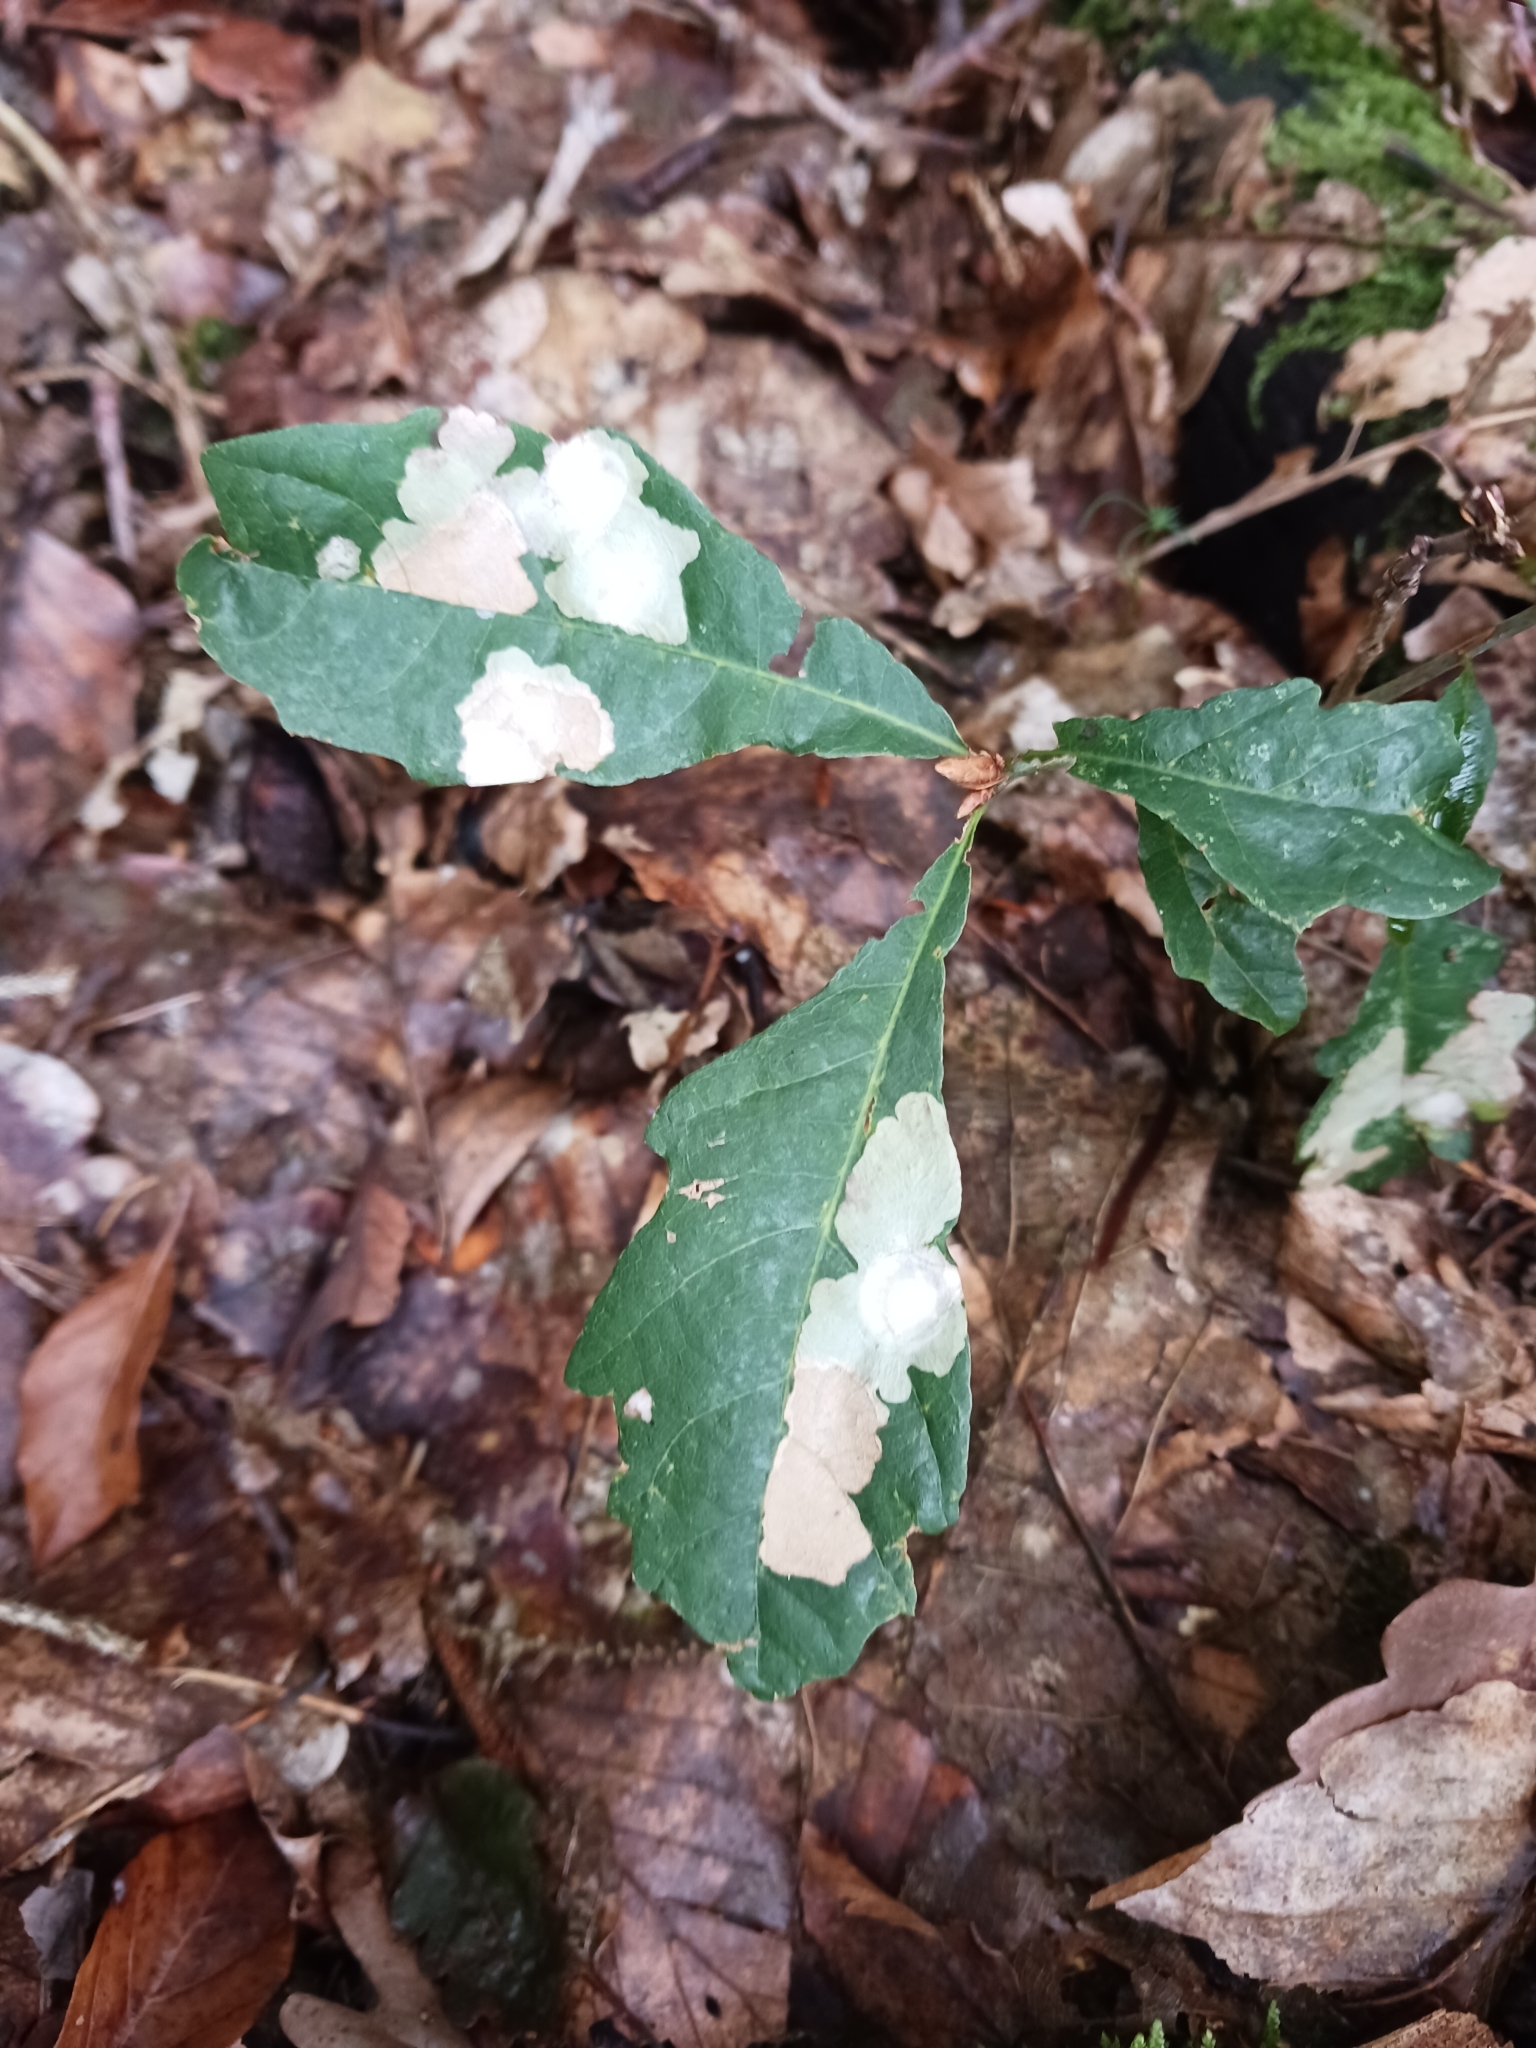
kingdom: Animalia
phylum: Arthropoda
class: Insecta
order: Lepidoptera
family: Tischeriidae
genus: Tischeria
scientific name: Tischeria ekebladella
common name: Oak carl
